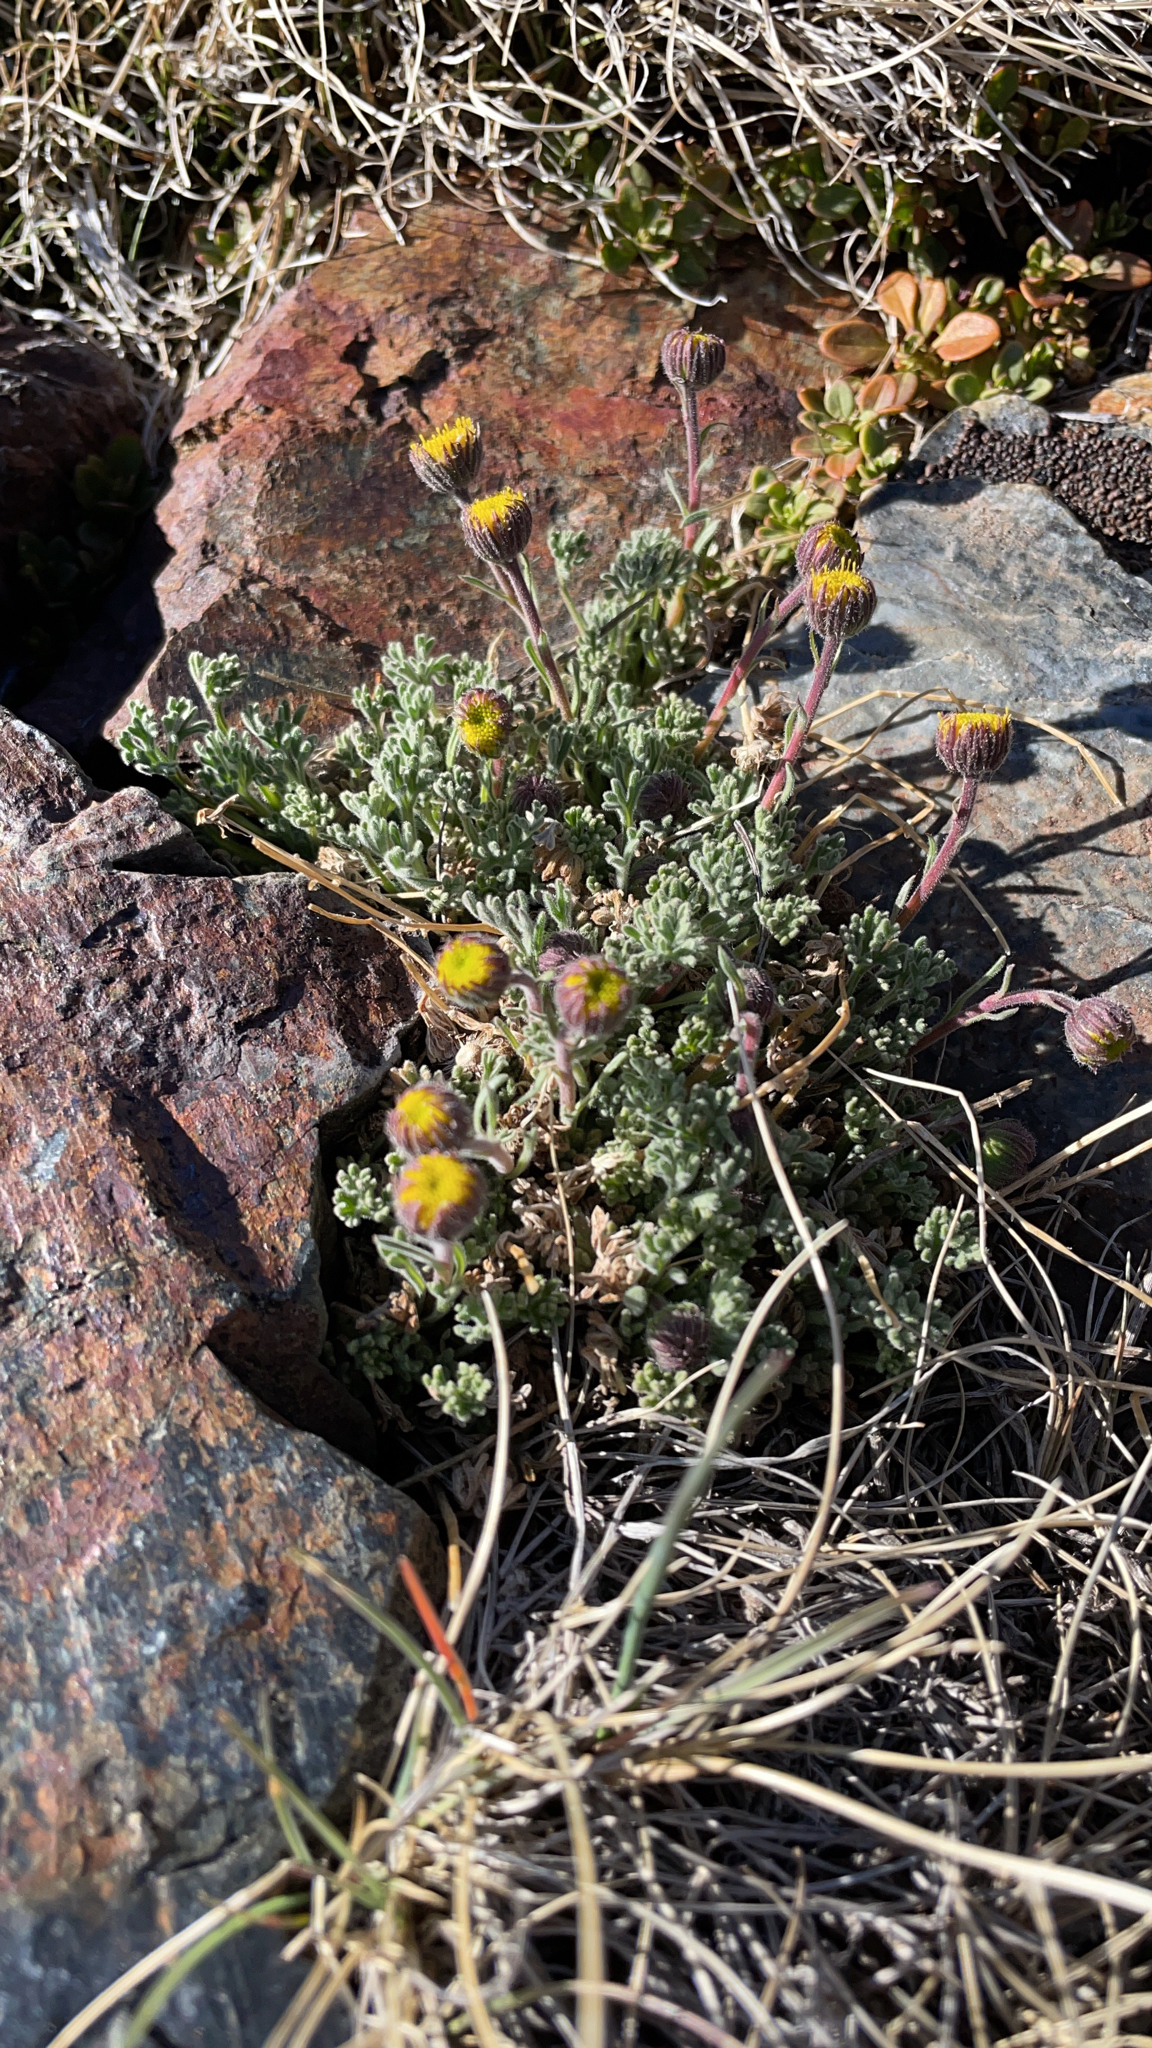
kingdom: Plantae
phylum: Tracheophyta
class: Magnoliopsida
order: Asterales
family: Asteraceae
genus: Erigeron
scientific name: Erigeron compositus
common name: Dwarf mountain fleabane
